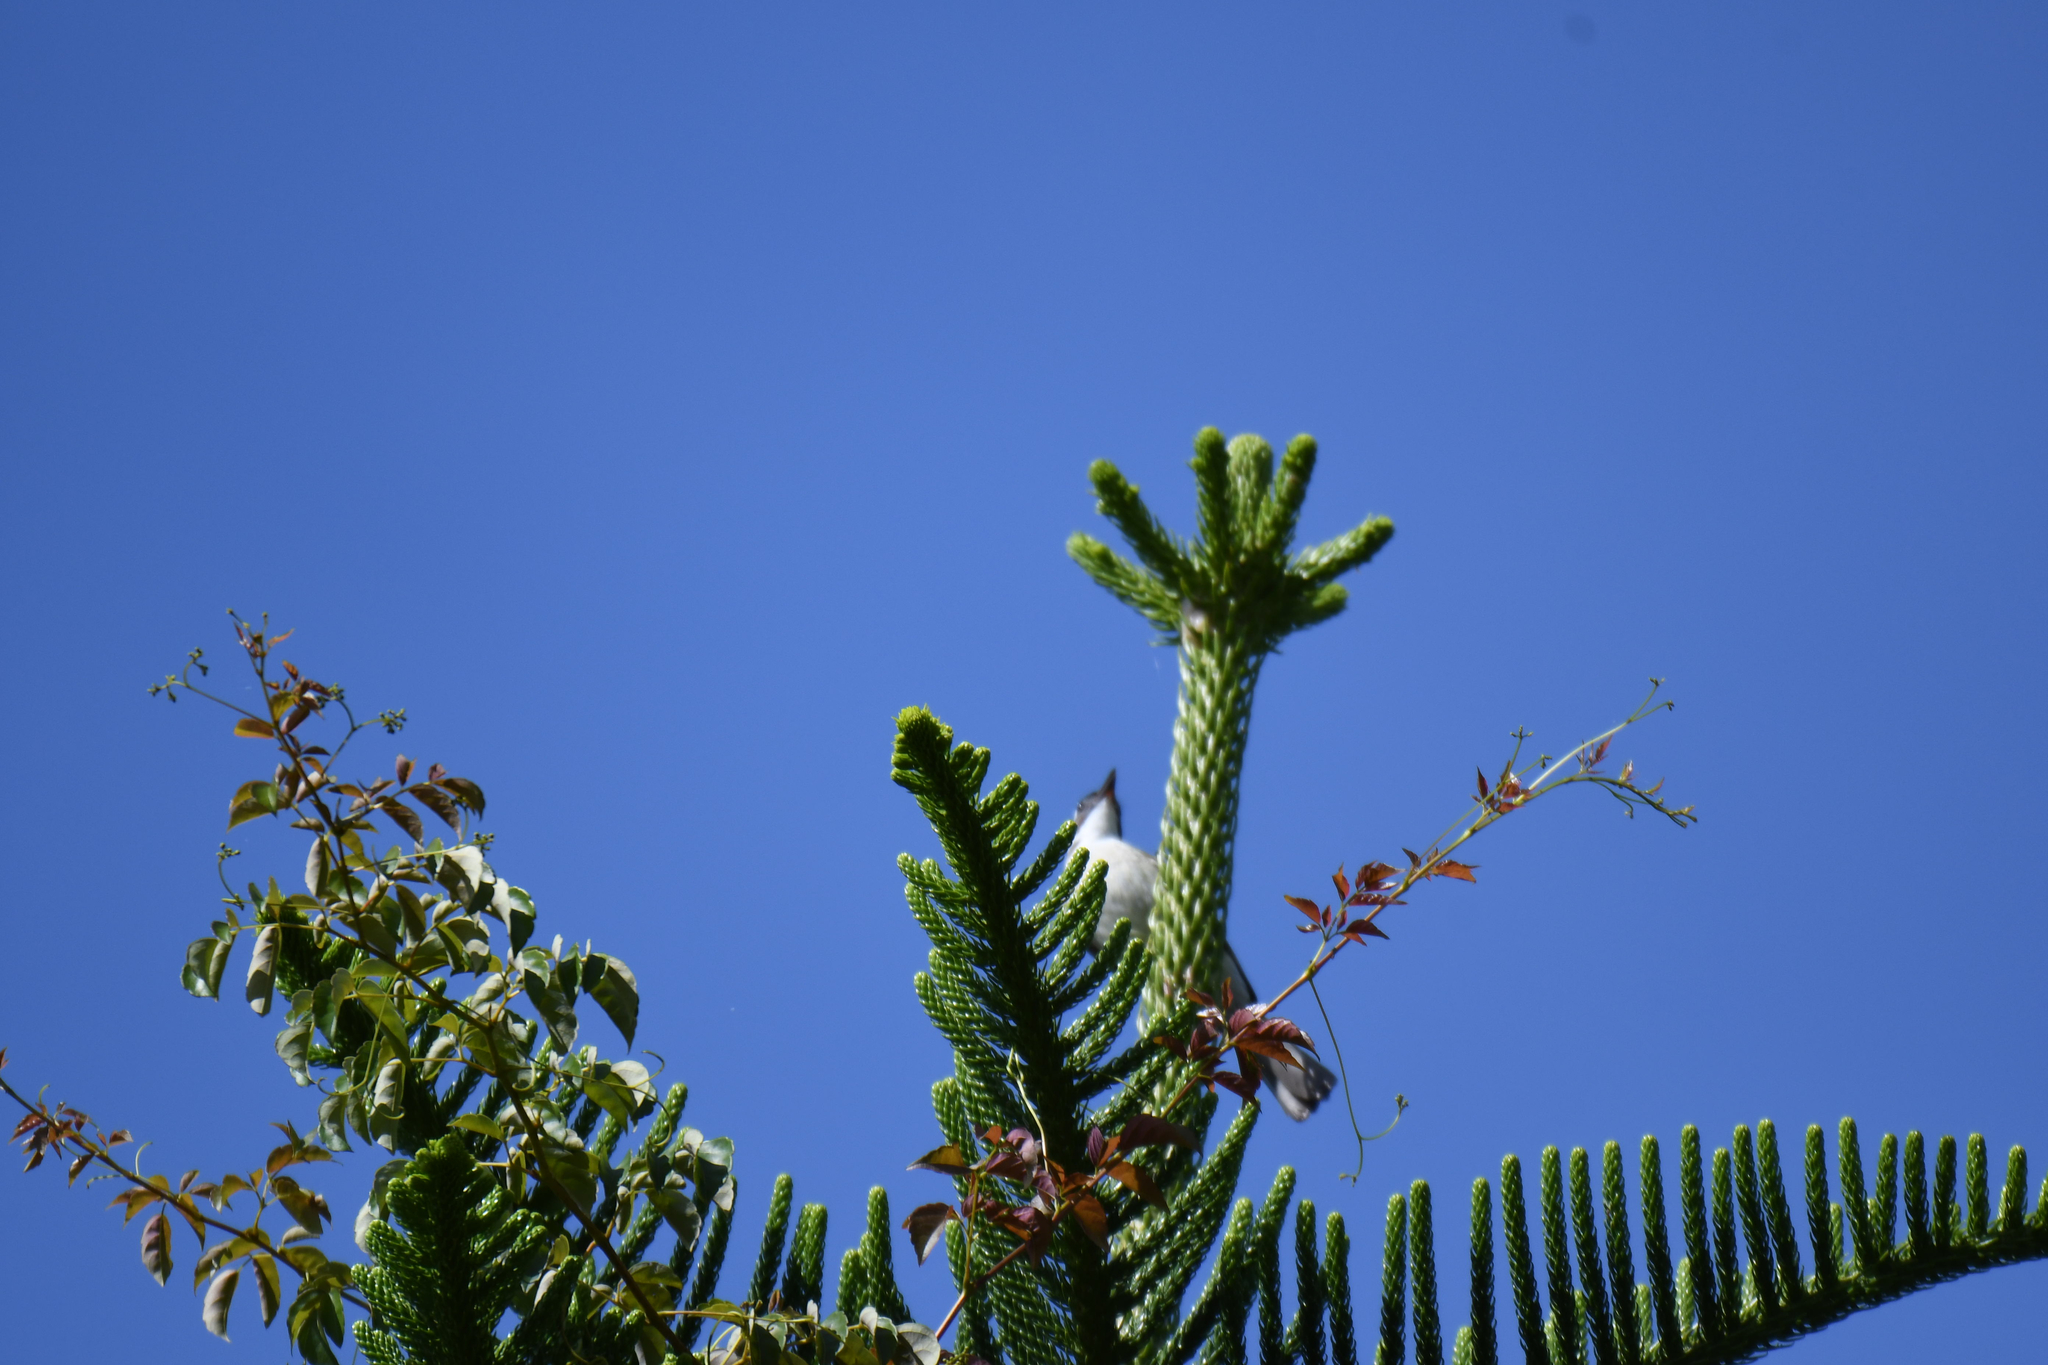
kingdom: Animalia
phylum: Chordata
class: Aves
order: Passeriformes
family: Pycnonotidae
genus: Pycnonotus
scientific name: Pycnonotus sinensis
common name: Light-vented bulbul
